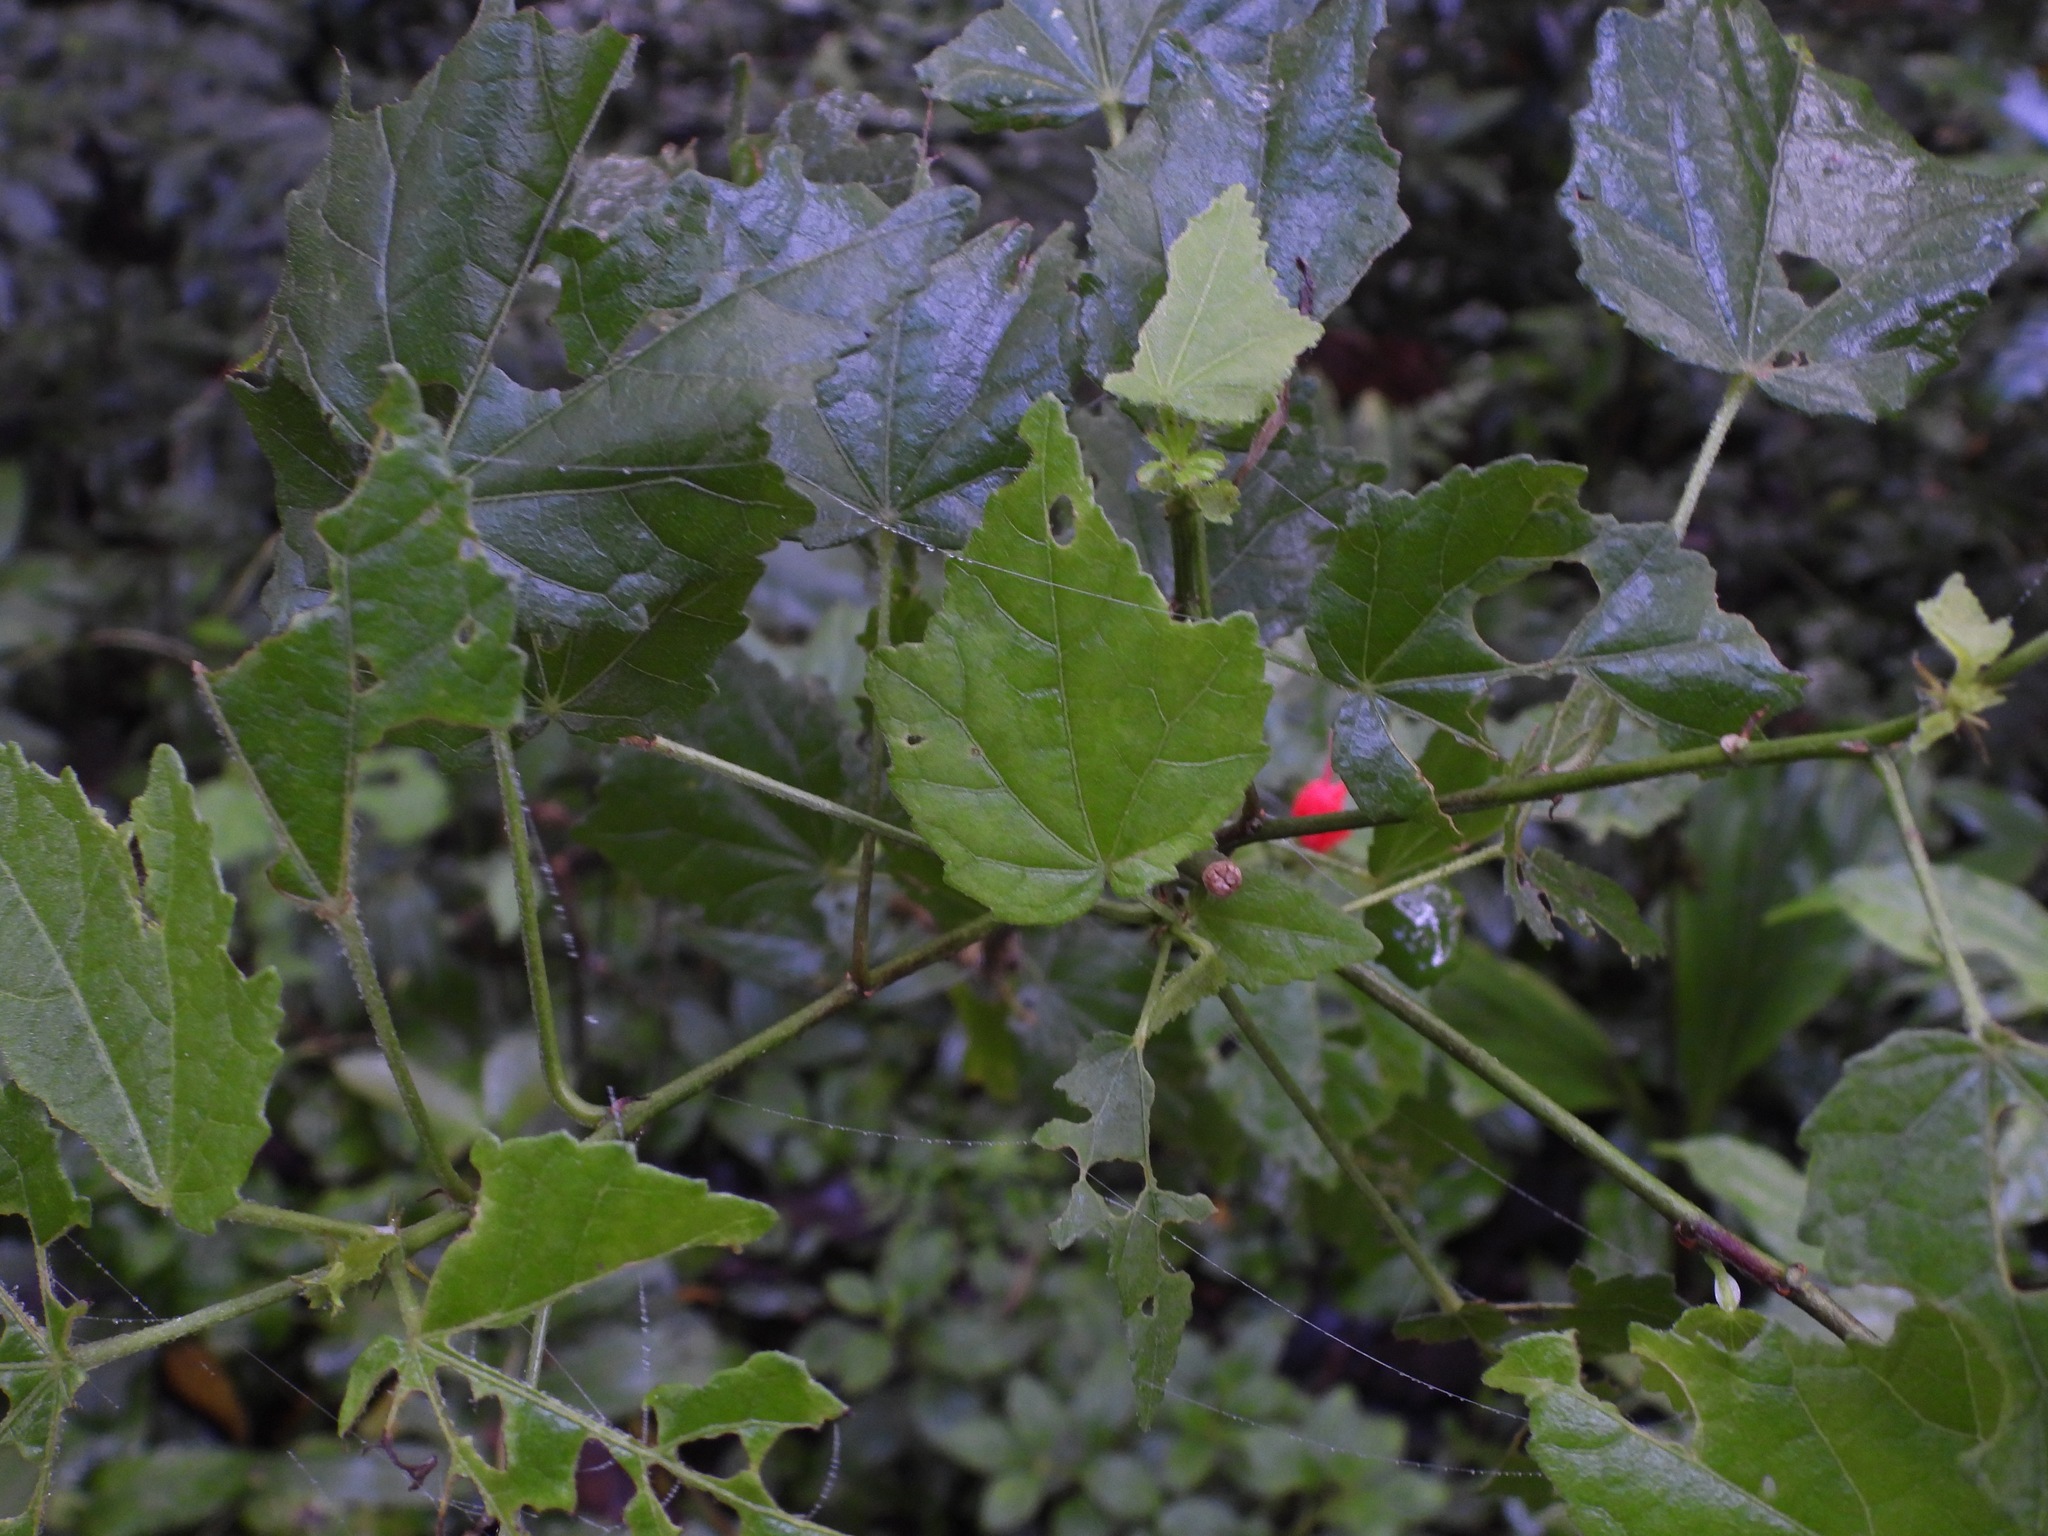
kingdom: Plantae
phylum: Tracheophyta
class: Magnoliopsida
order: Malvales
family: Malvaceae
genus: Malvaviscus
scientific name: Malvaviscus arboreus
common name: Wax mallow
